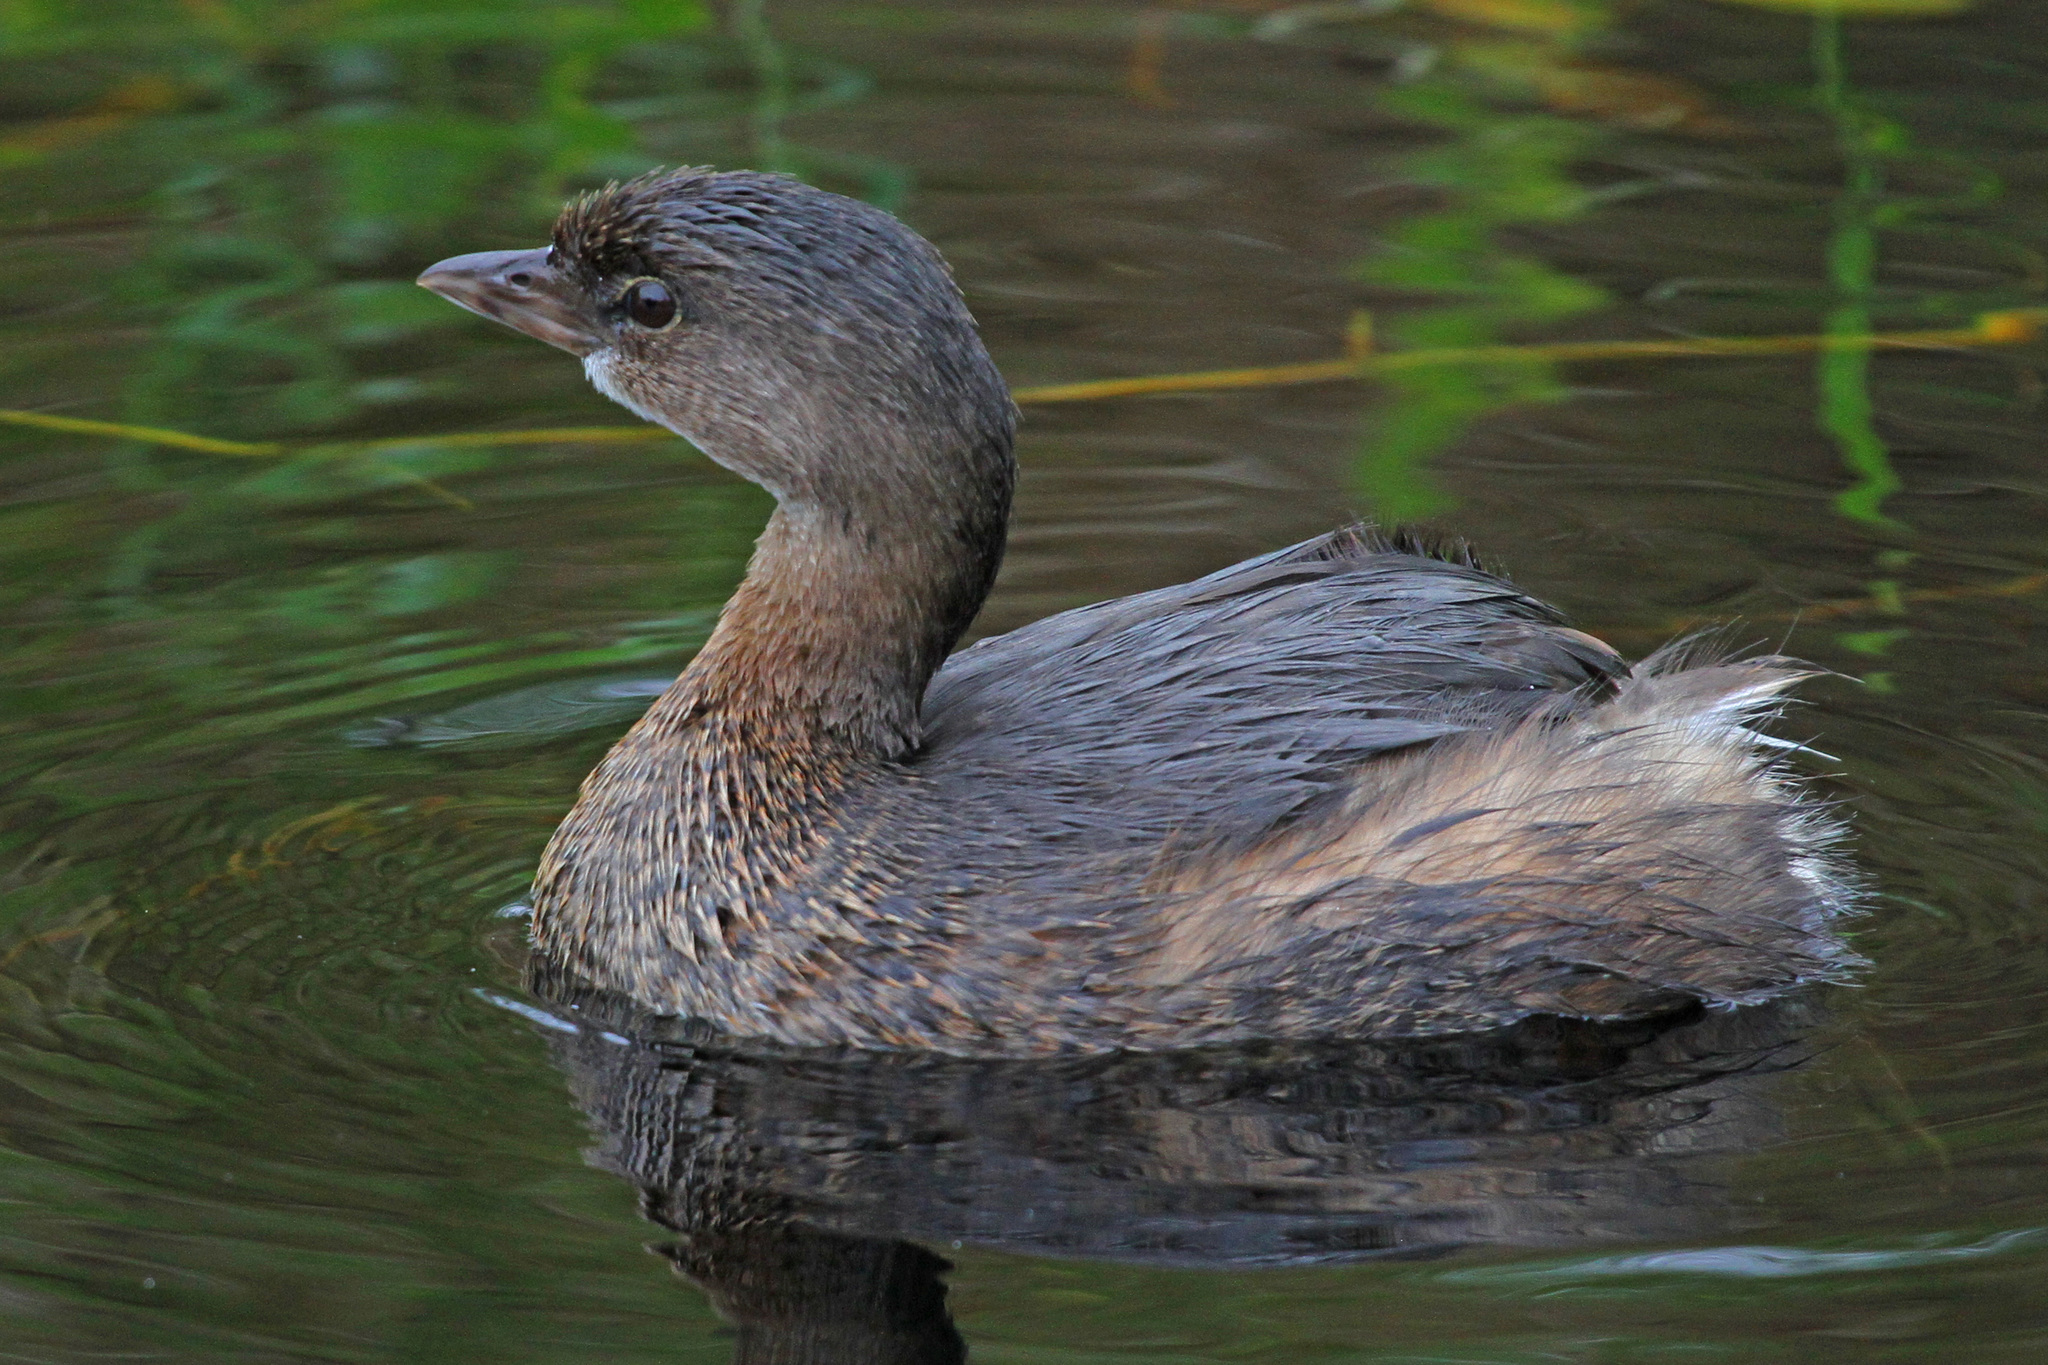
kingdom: Animalia
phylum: Chordata
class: Aves
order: Podicipediformes
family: Podicipedidae
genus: Podilymbus
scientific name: Podilymbus podiceps
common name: Pied-billed grebe
